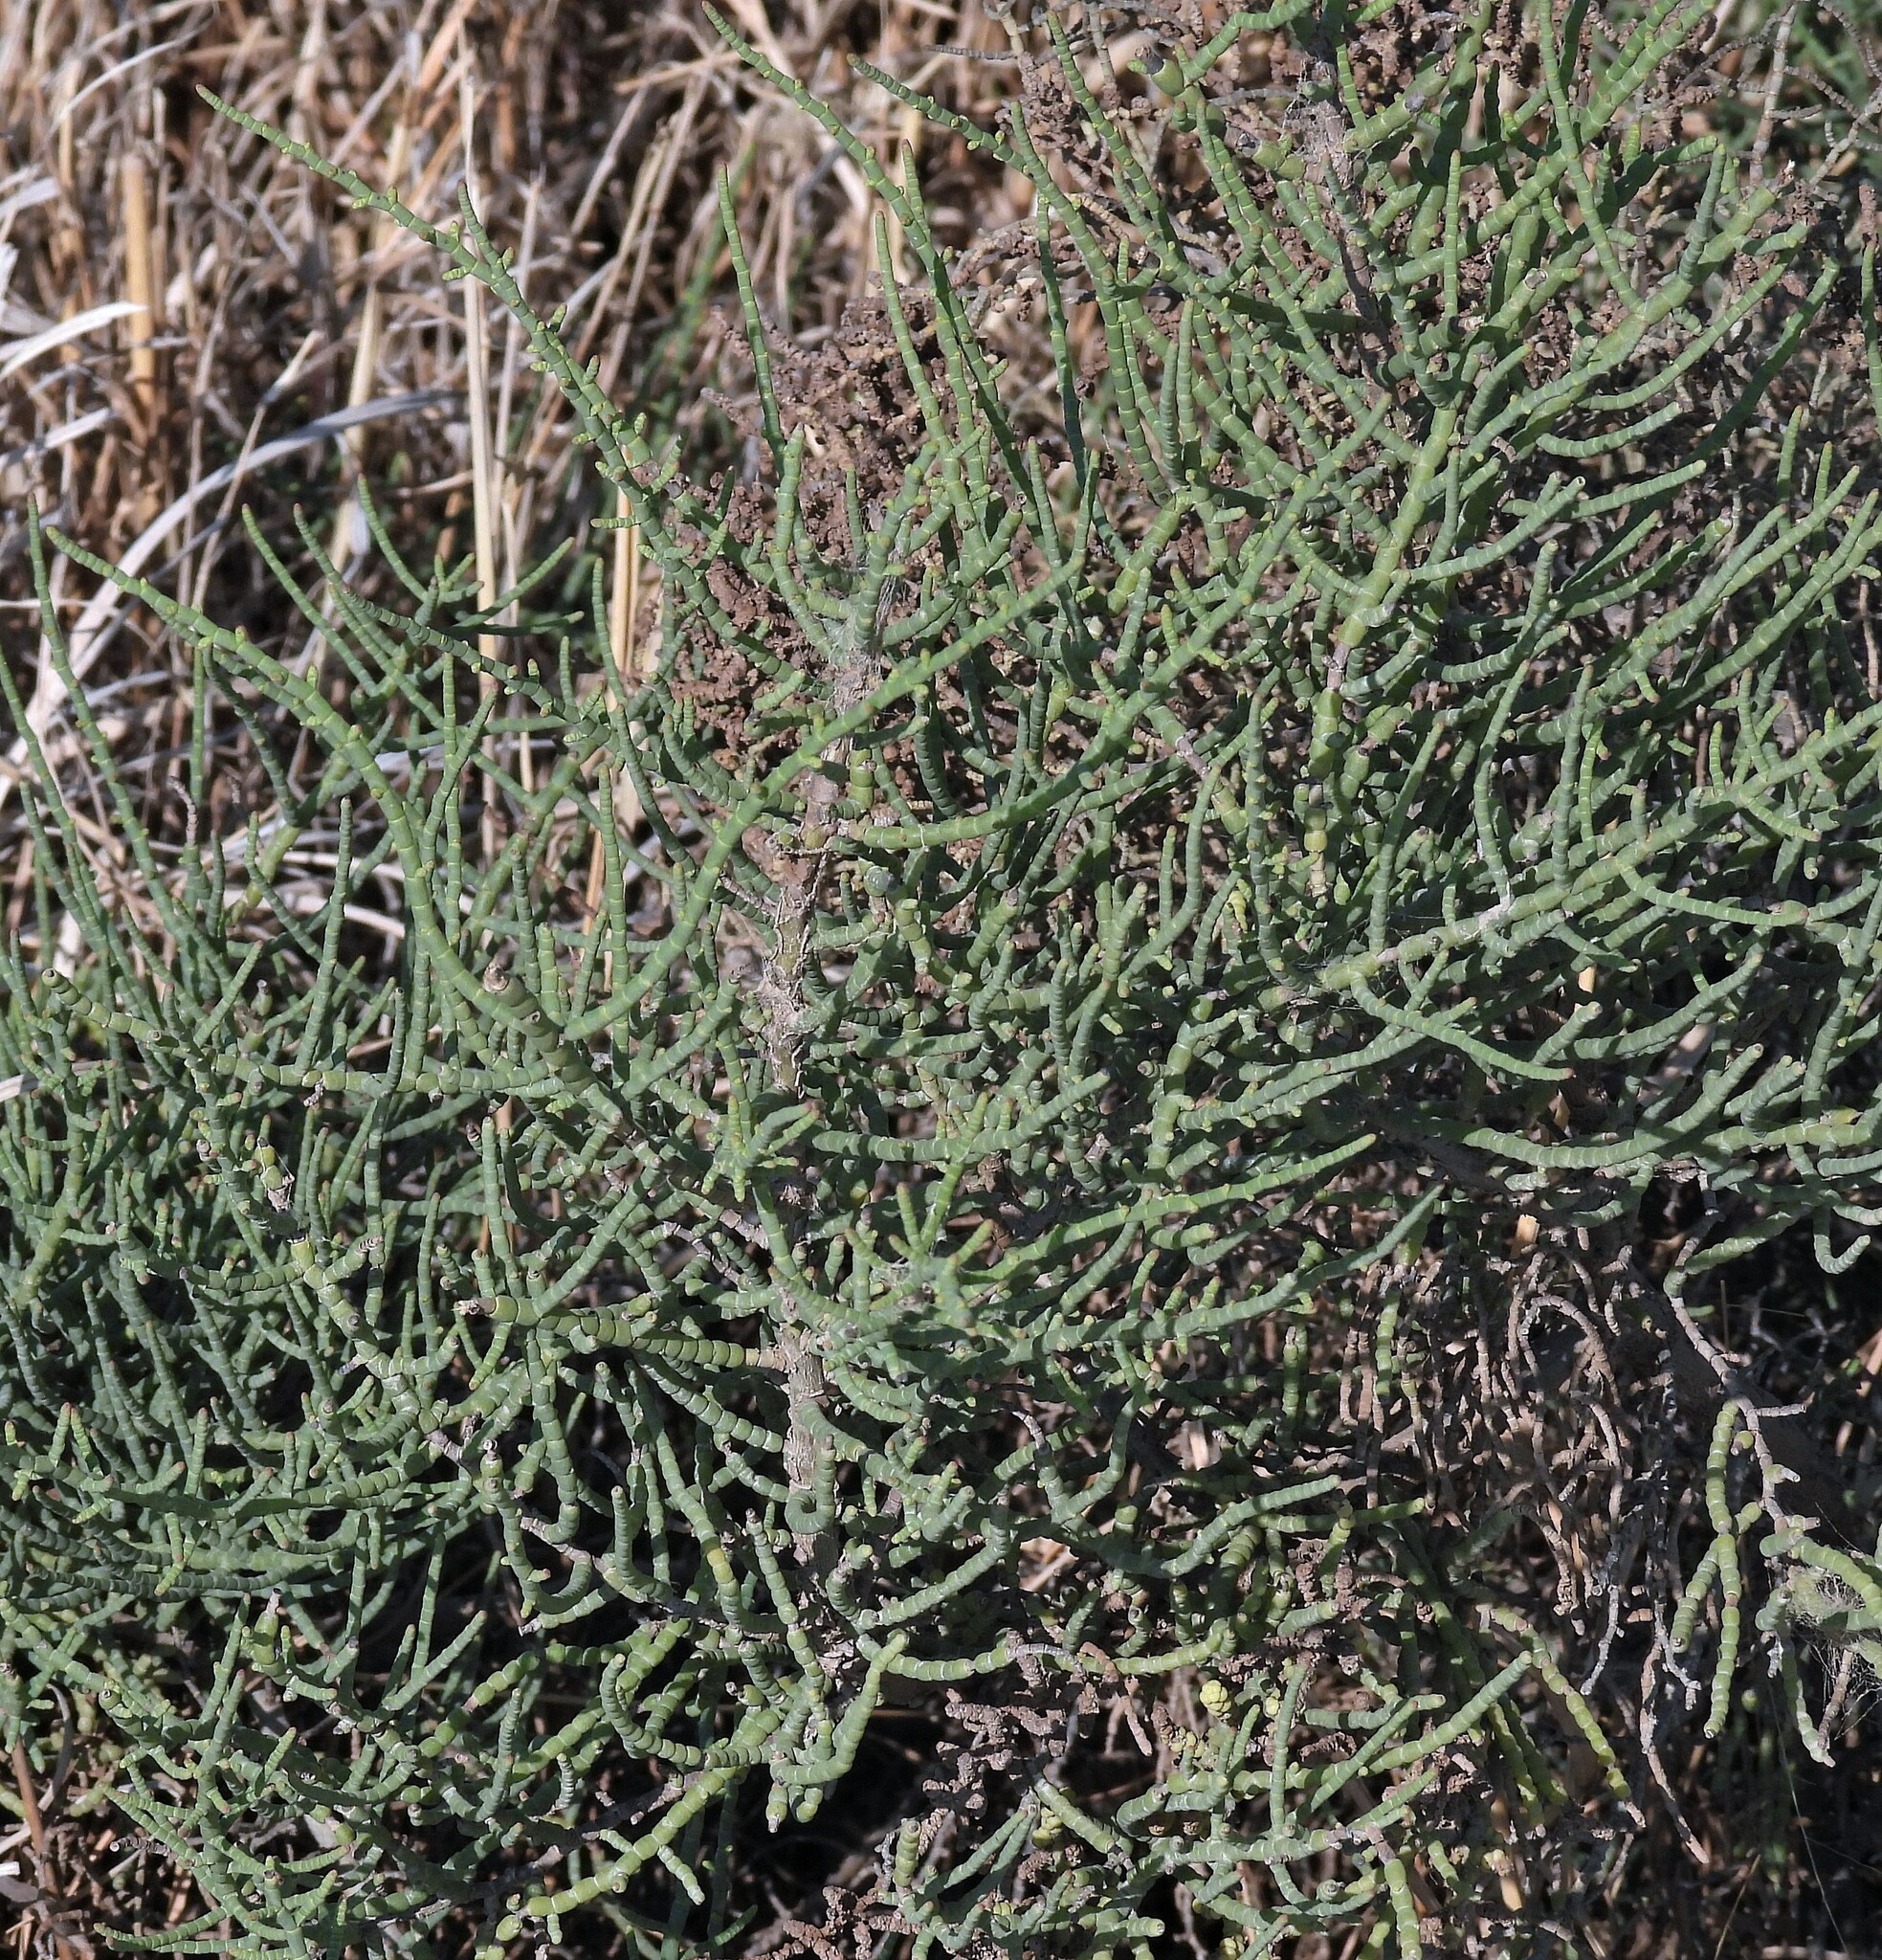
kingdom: Plantae
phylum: Tracheophyta
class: Magnoliopsida
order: Caryophyllales
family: Amaranthaceae
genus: Allenrolfea
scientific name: Allenrolfea vaginata
